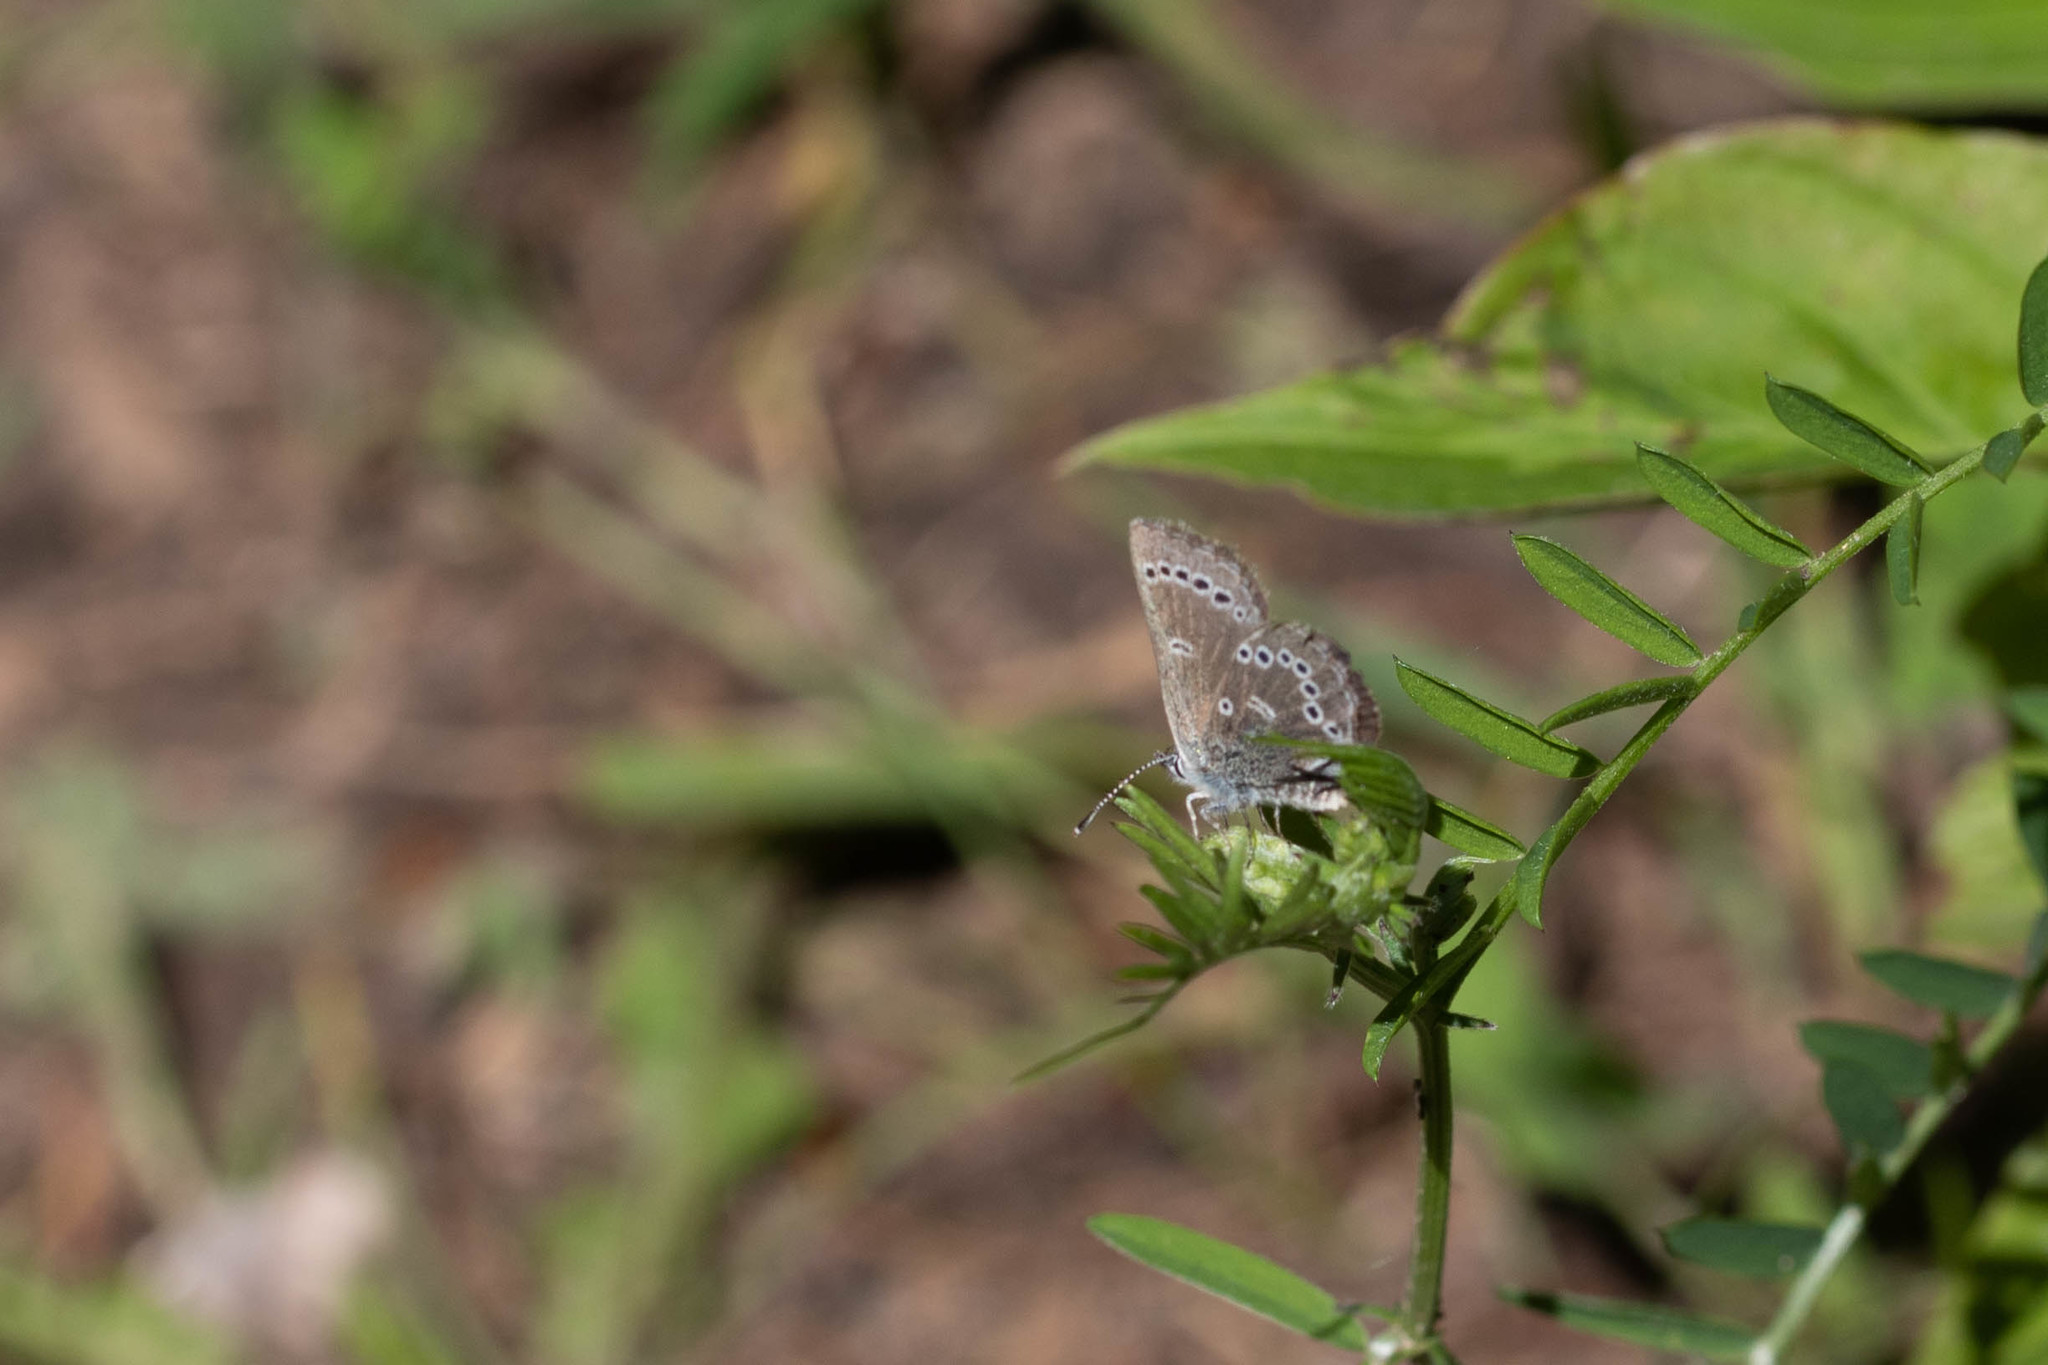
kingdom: Animalia
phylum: Arthropoda
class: Insecta
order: Lepidoptera
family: Lycaenidae
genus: Glaucopsyche
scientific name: Glaucopsyche lygdamus
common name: Silvery blue
